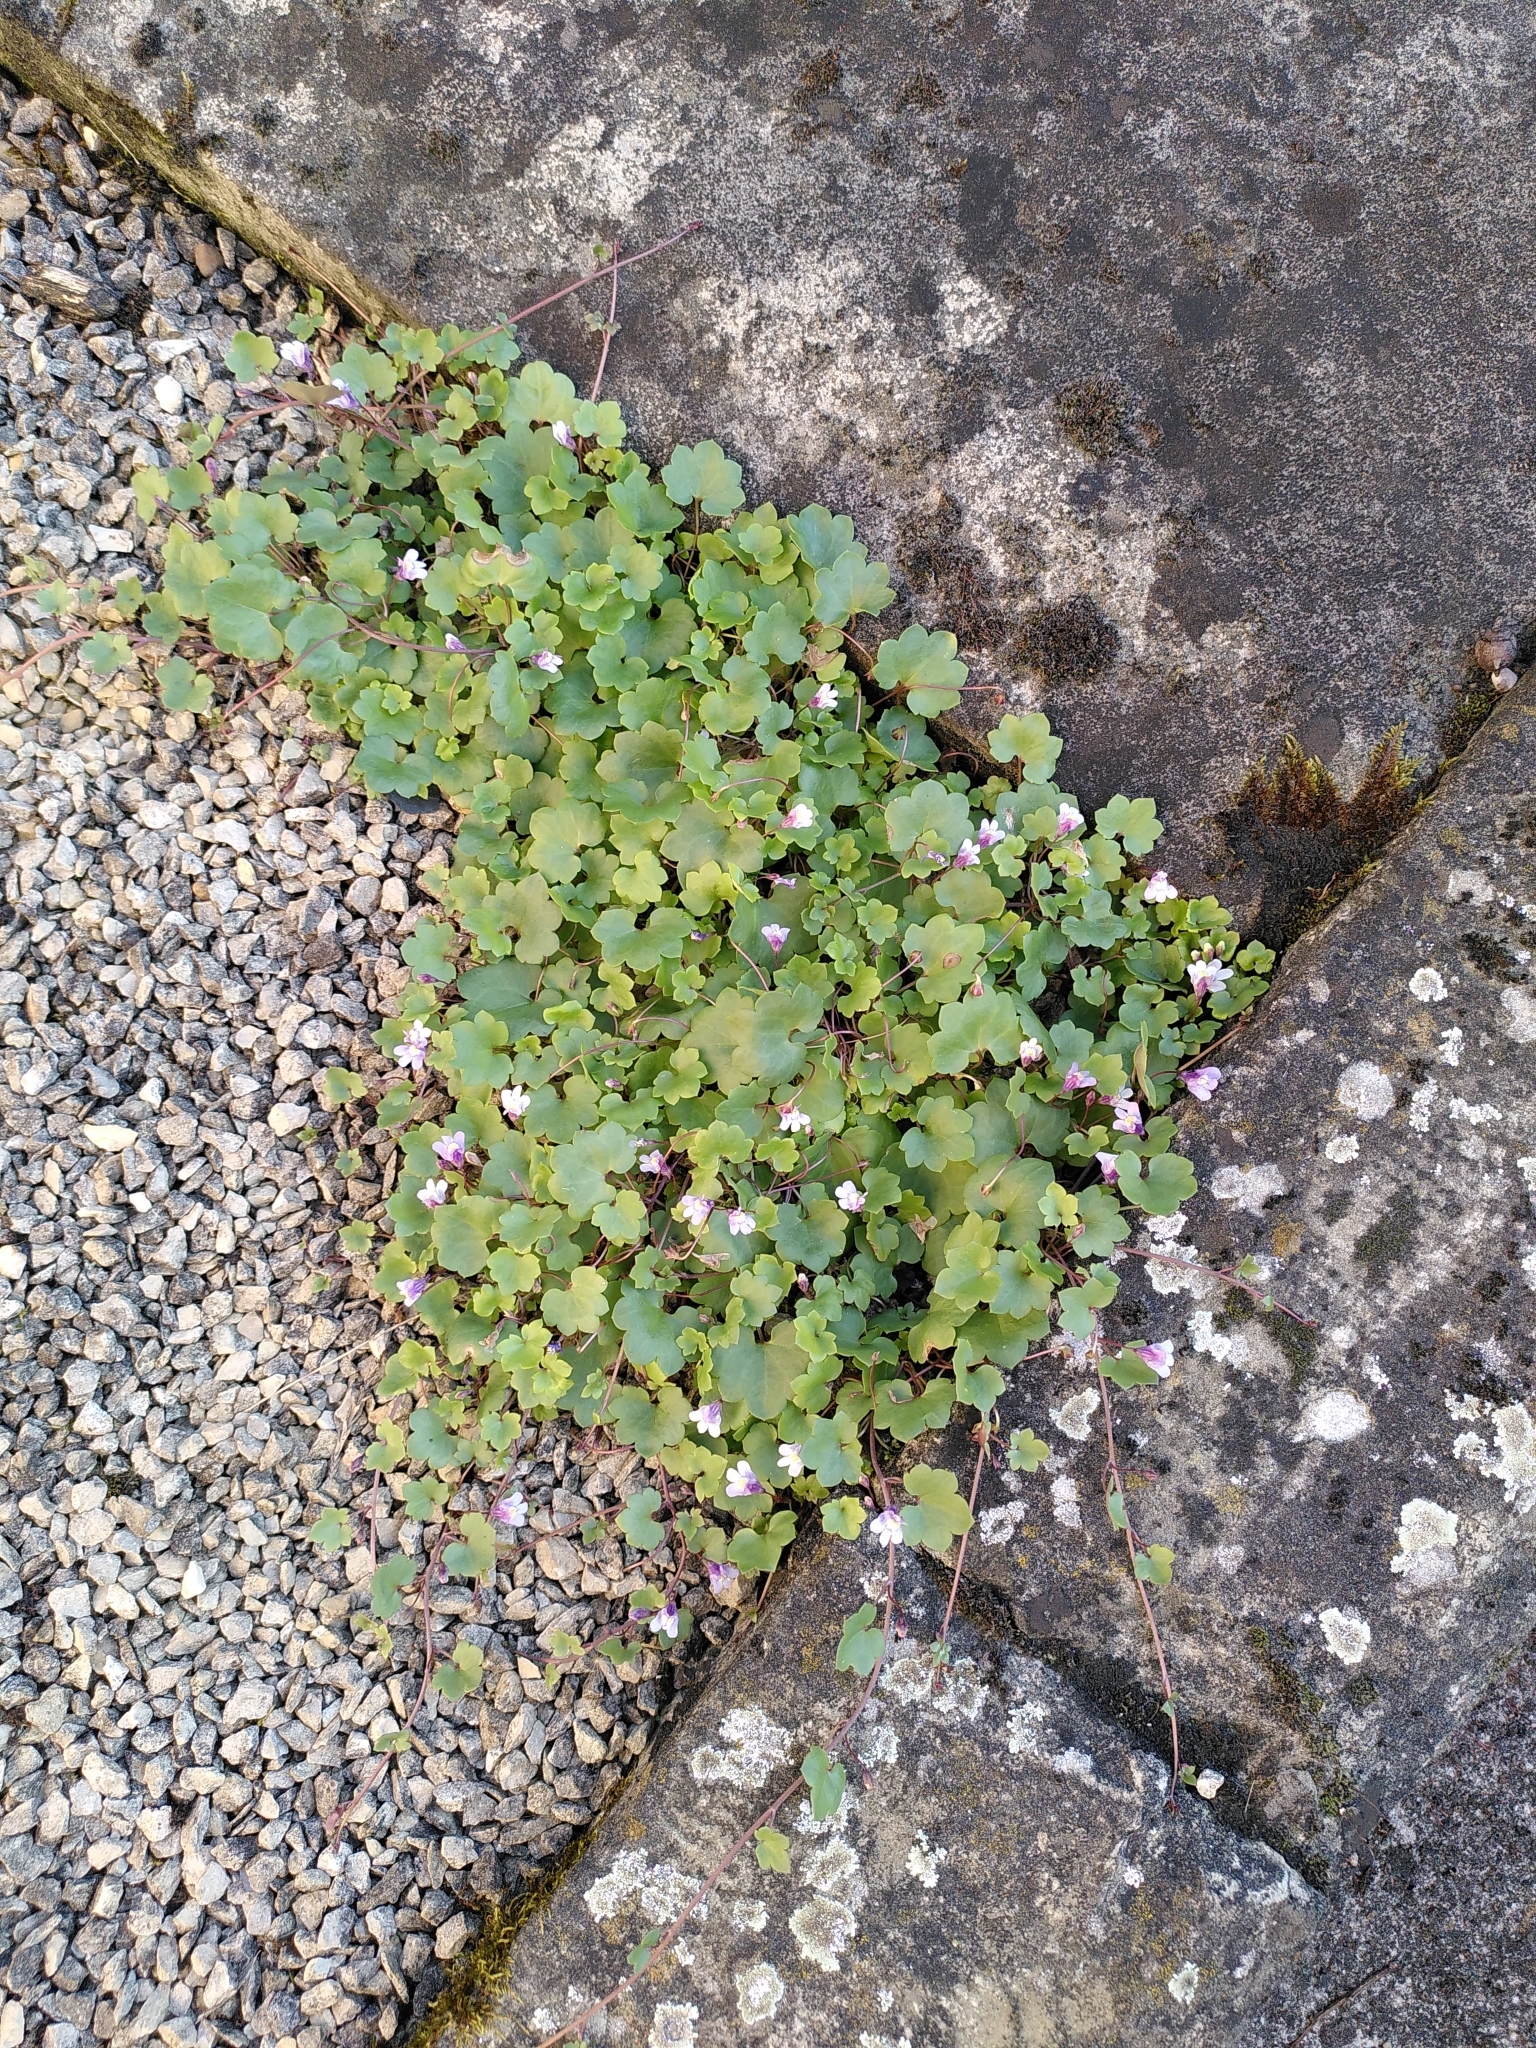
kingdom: Plantae
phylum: Tracheophyta
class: Magnoliopsida
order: Lamiales
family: Plantaginaceae
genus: Cymbalaria
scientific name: Cymbalaria muralis
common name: Ivy-leaved toadflax
